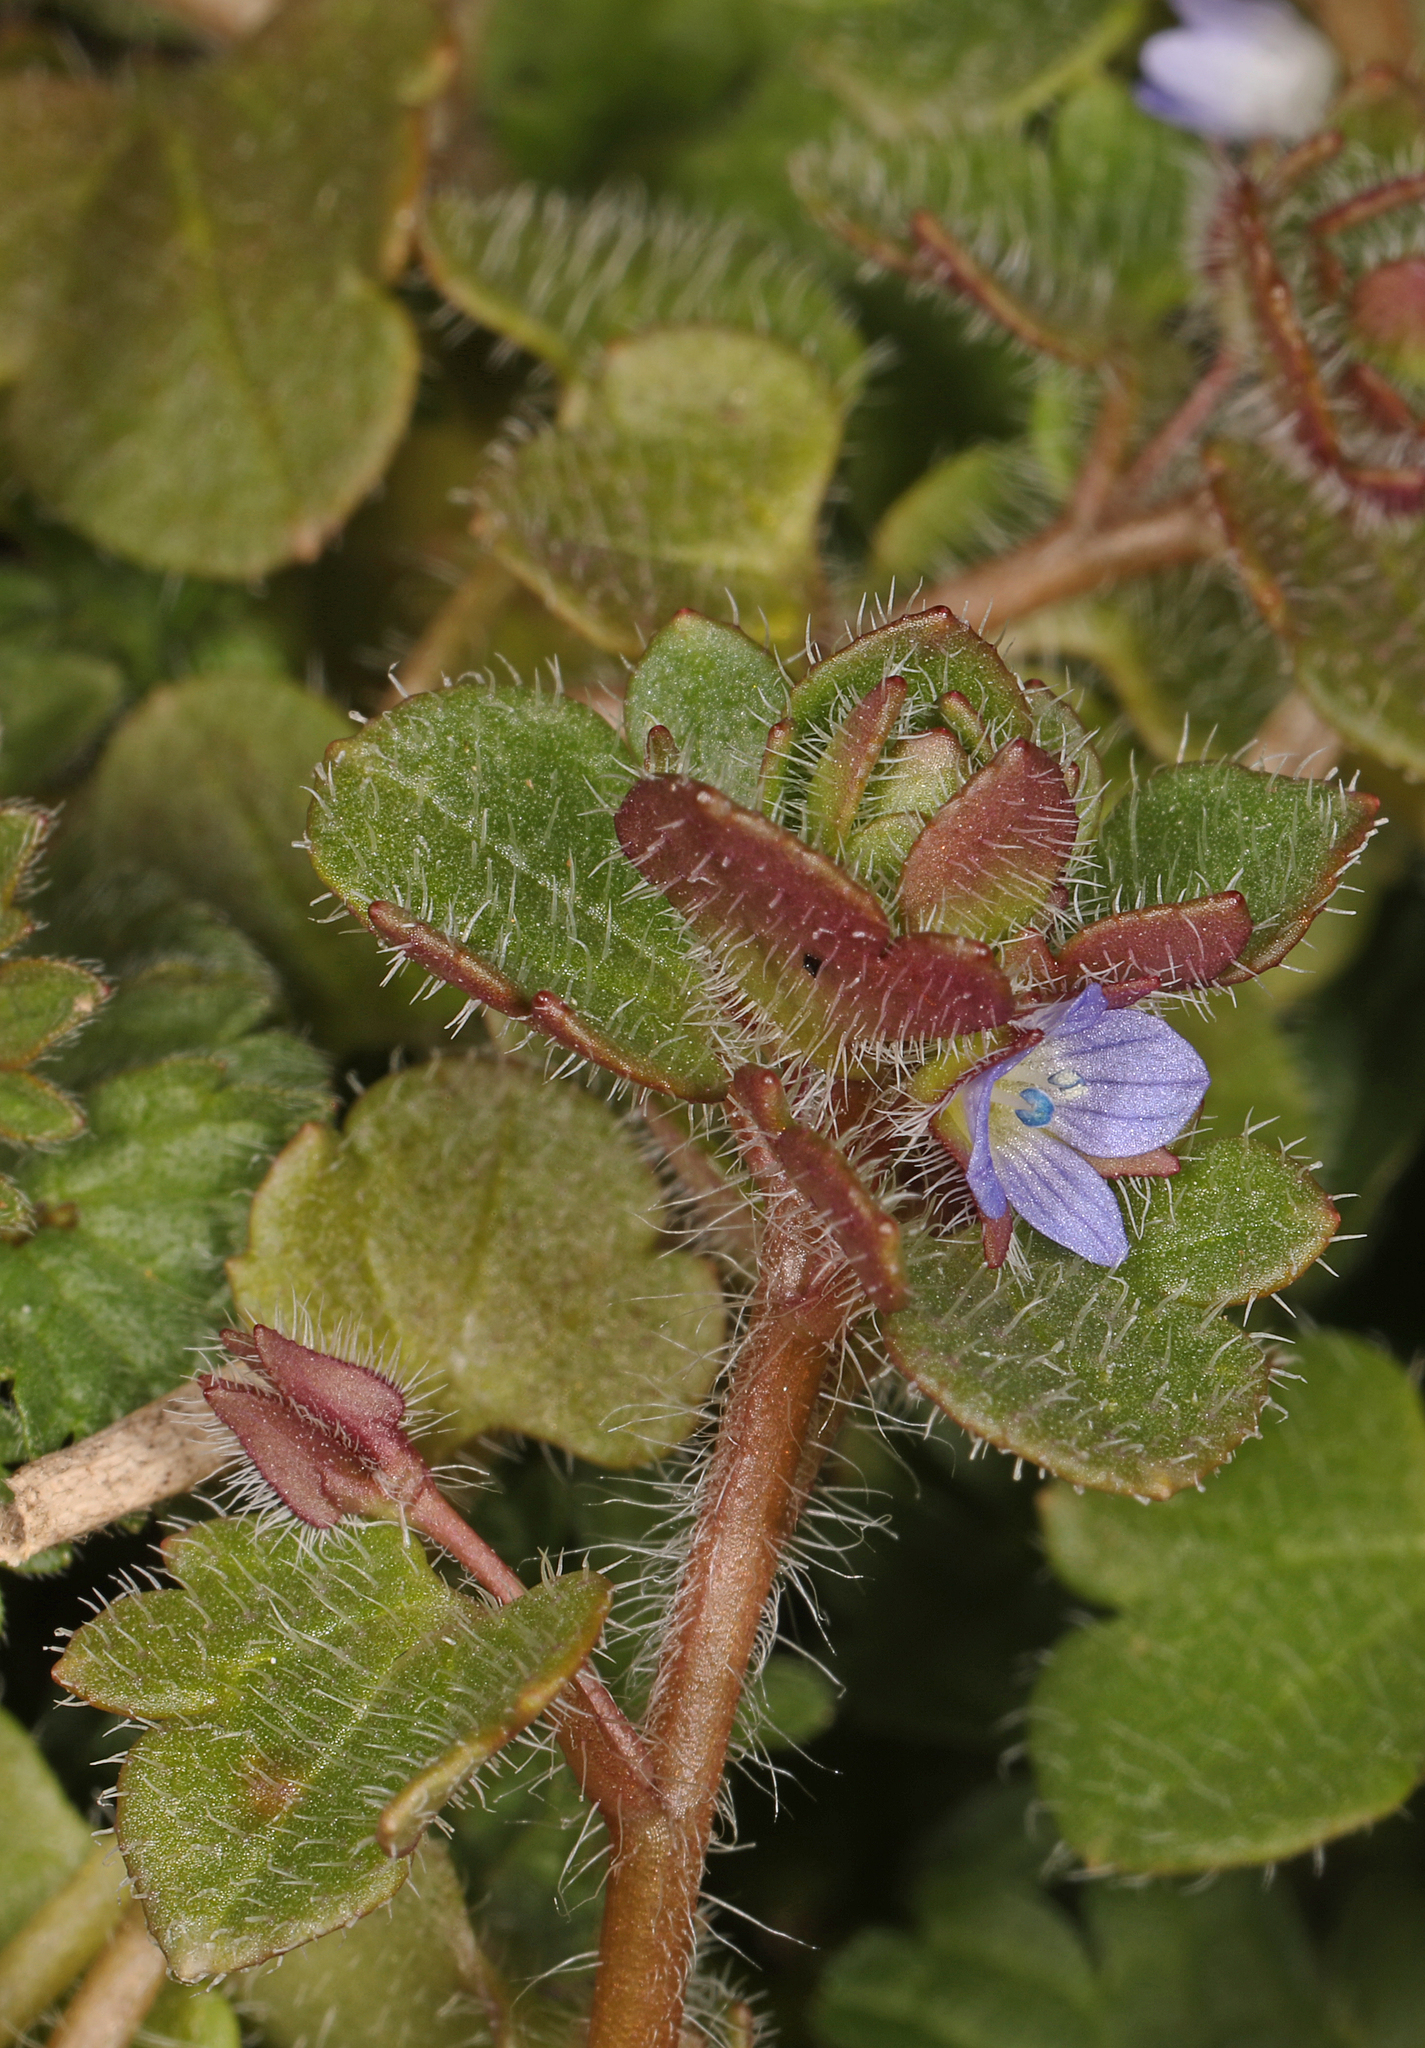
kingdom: Plantae
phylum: Tracheophyta
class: Magnoliopsida
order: Lamiales
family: Plantaginaceae
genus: Veronica
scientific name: Veronica hederifolia
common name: Ivy-leaved speedwell
